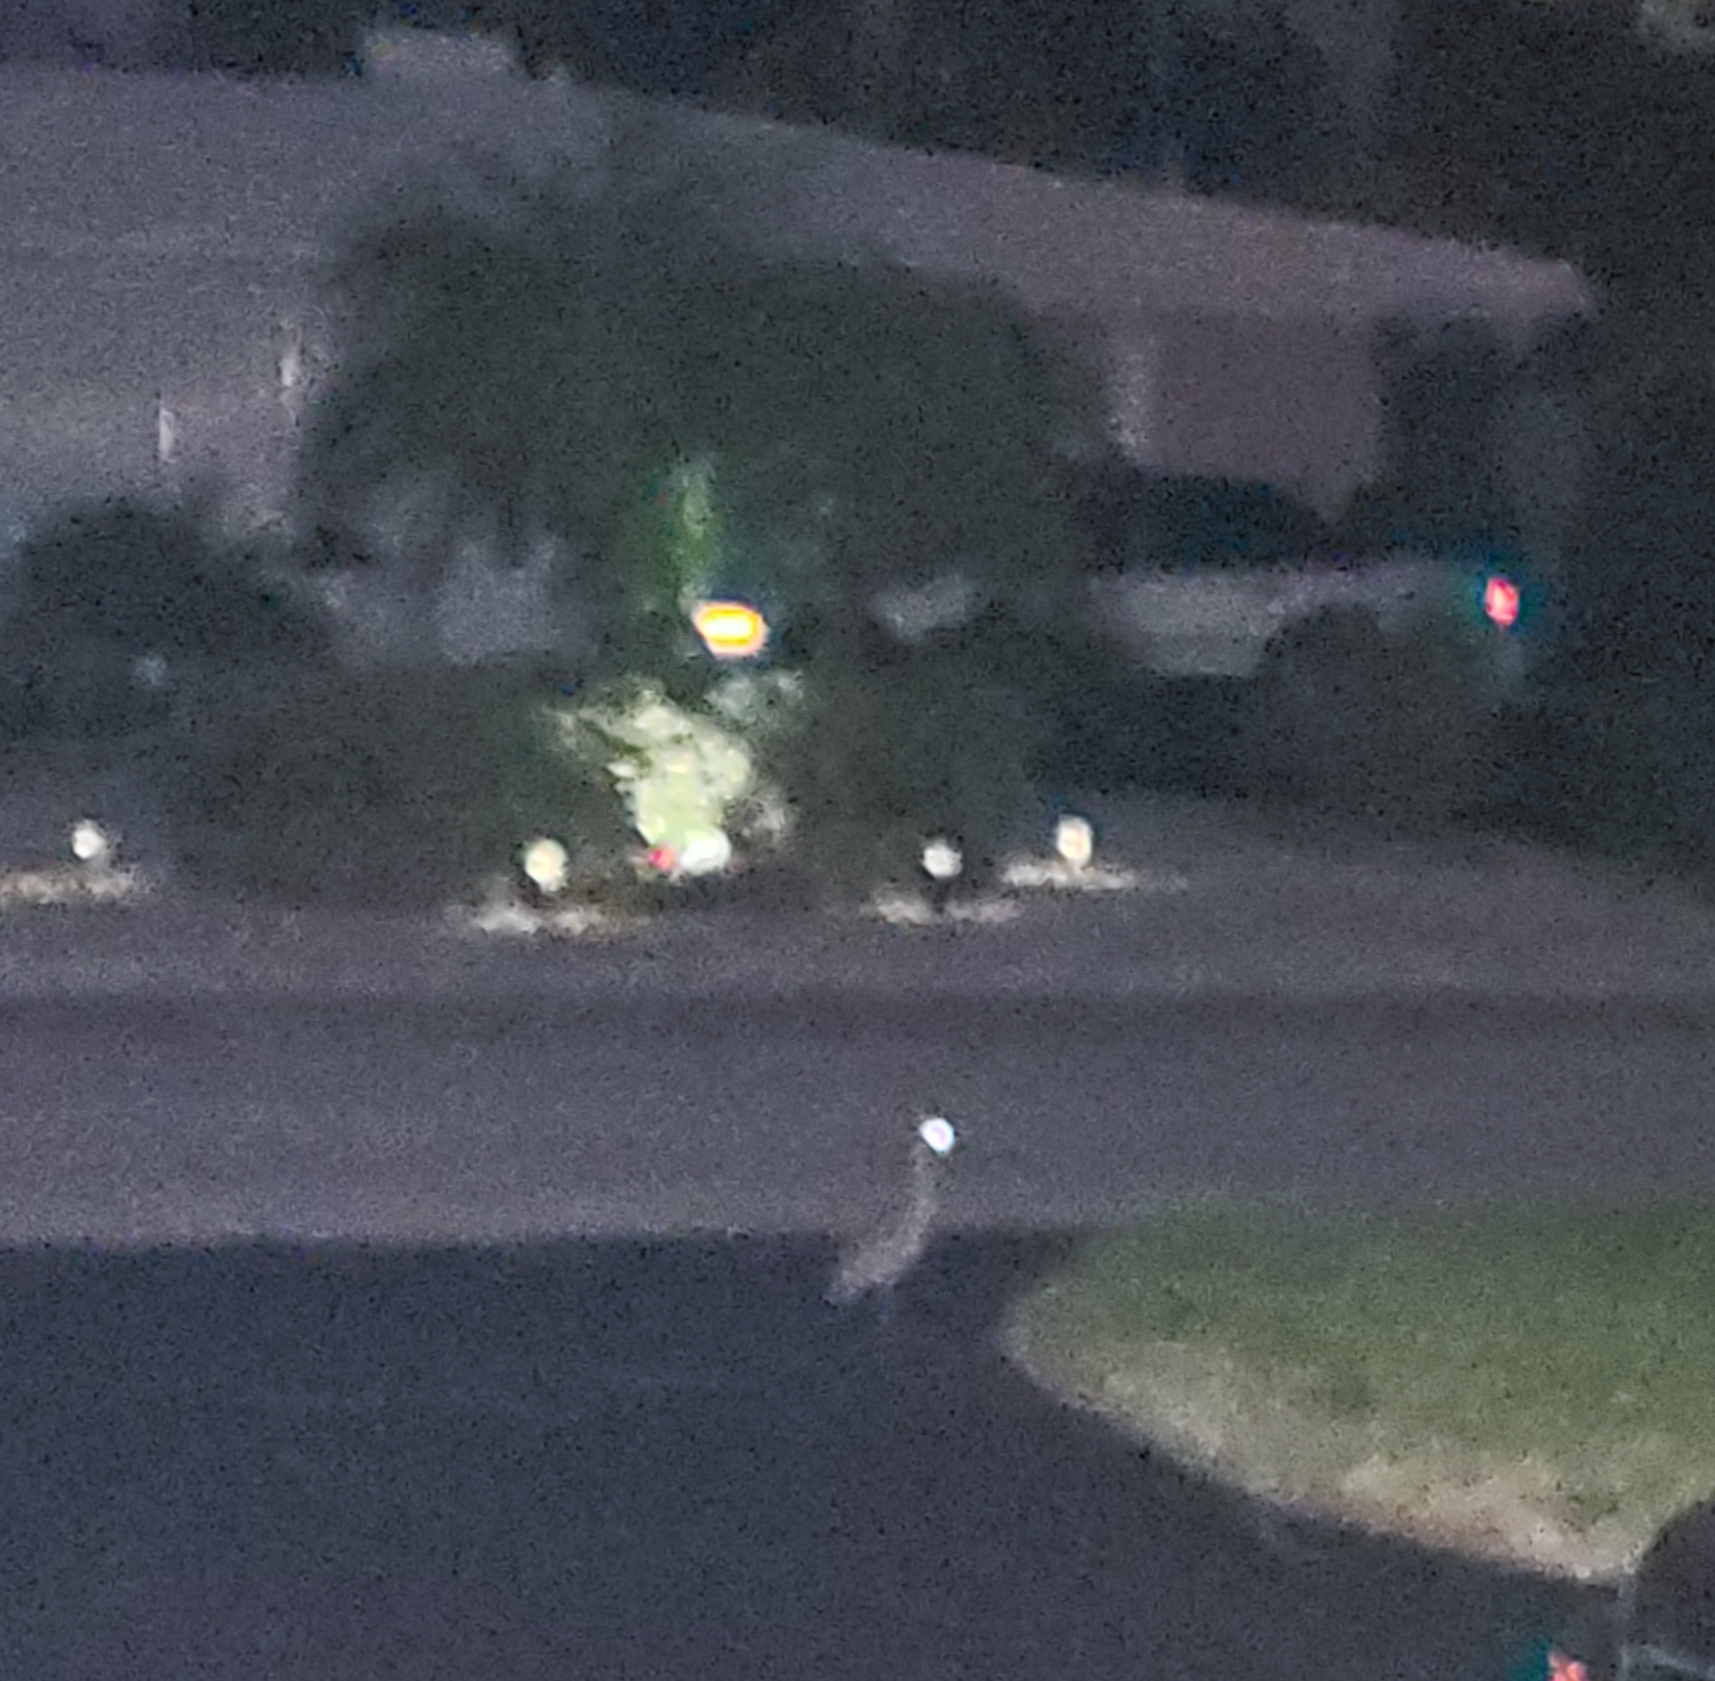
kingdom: Animalia
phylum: Chordata
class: Aves
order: Pelecaniformes
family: Ardeidae
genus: Nyctanassa
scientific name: Nyctanassa violacea
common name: Yellow-crowned night heron
